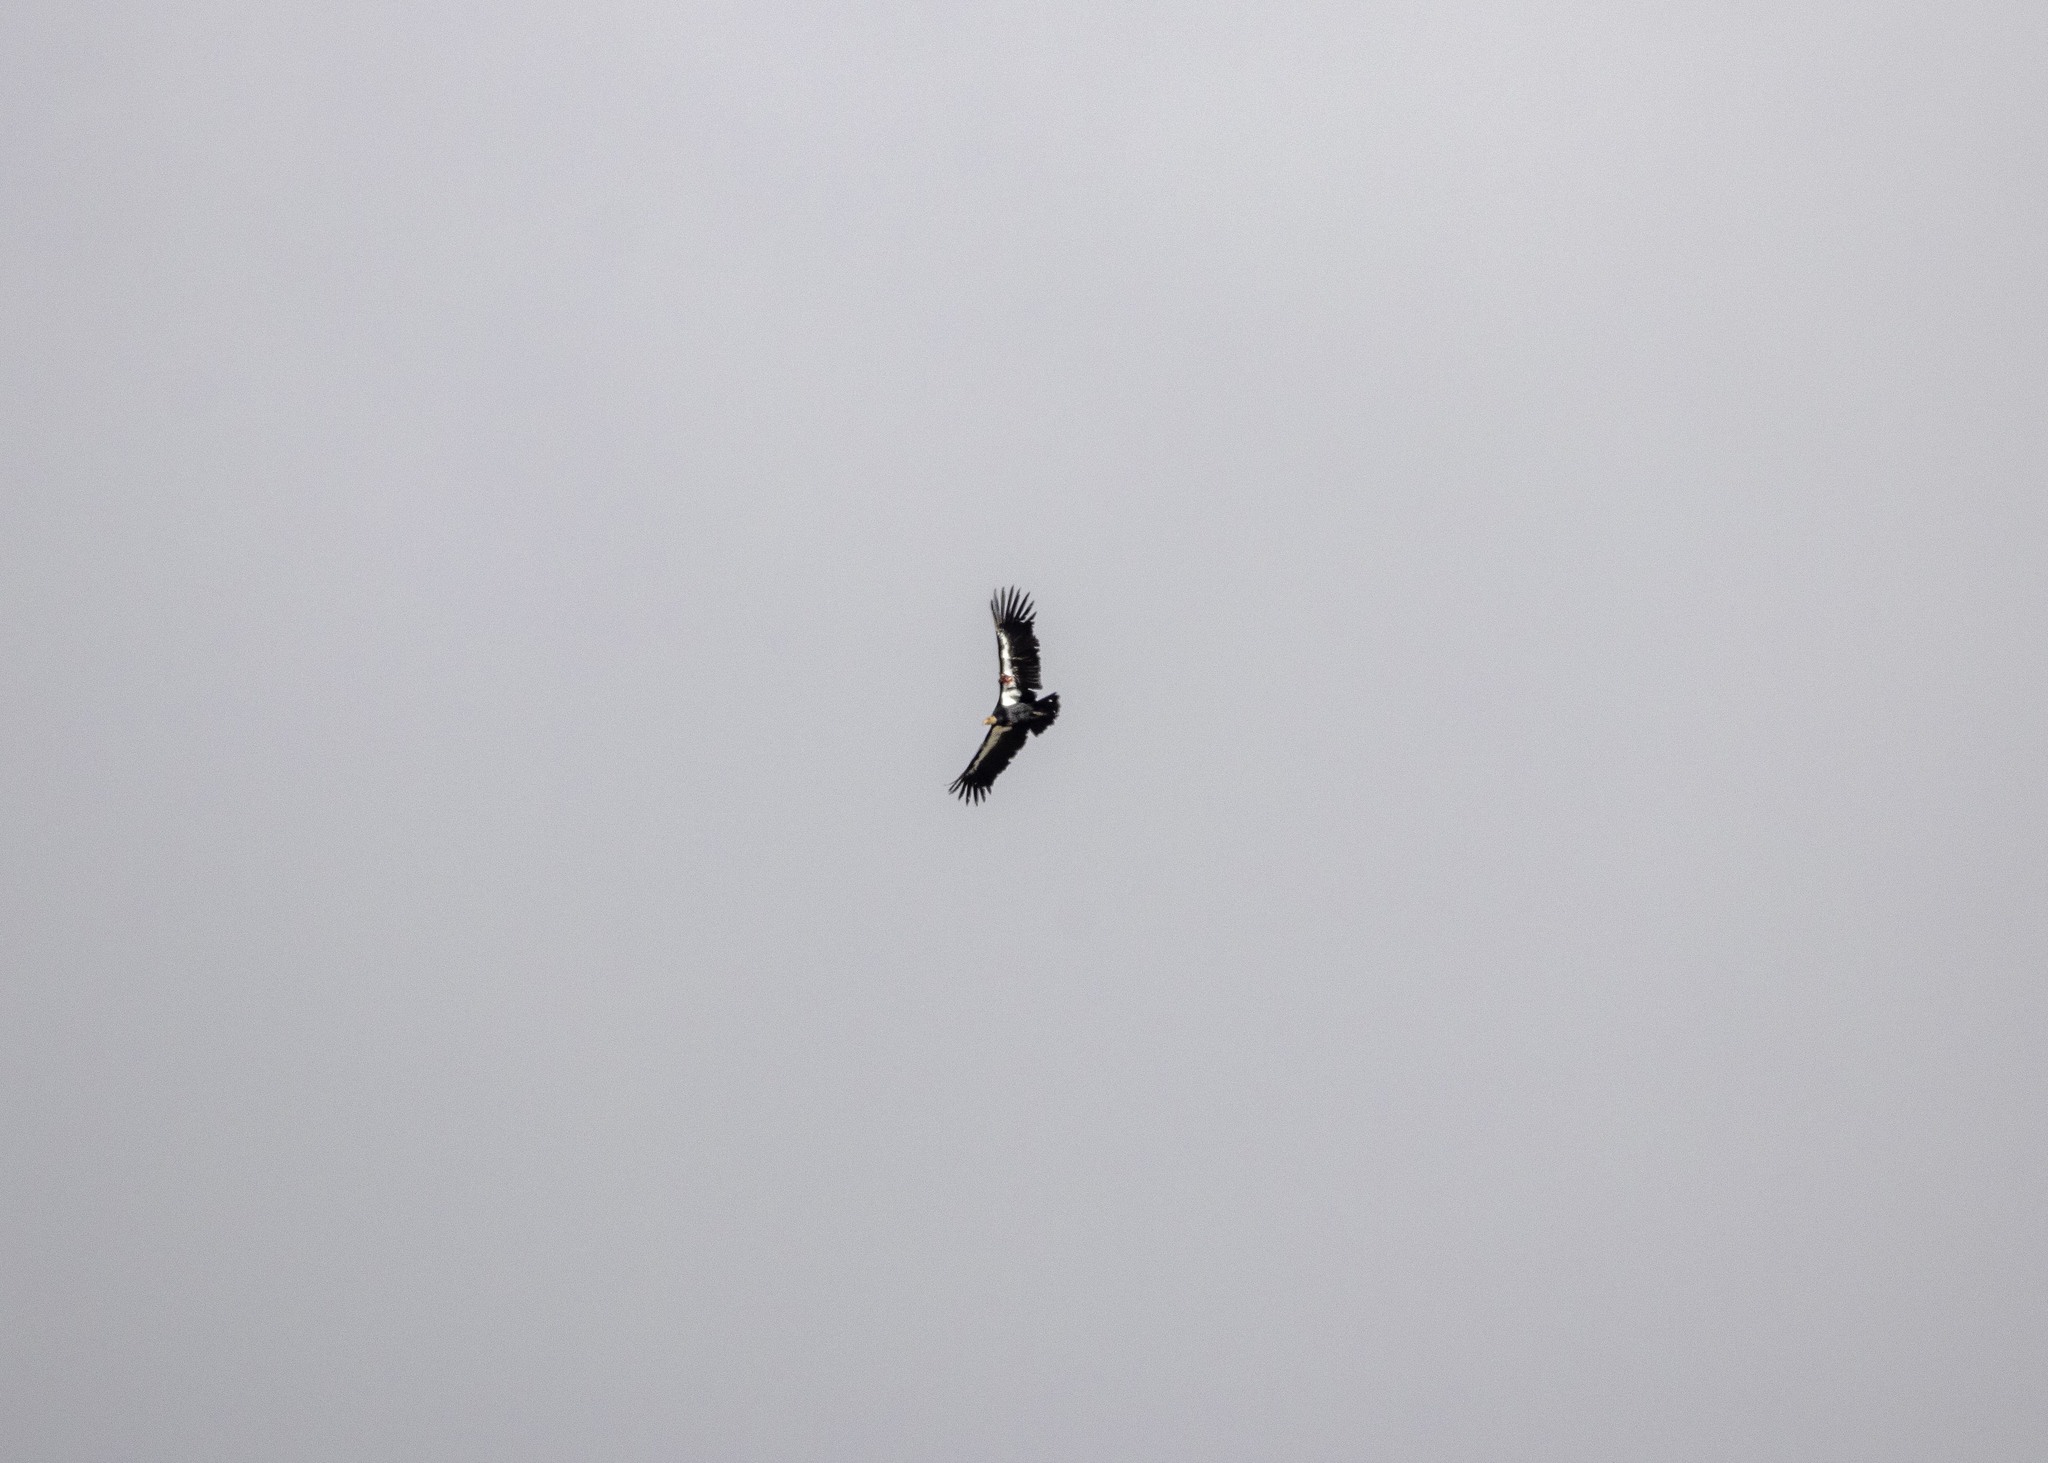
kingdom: Animalia
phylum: Chordata
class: Aves
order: Accipitriformes
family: Cathartidae
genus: Gymnogyps
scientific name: Gymnogyps californianus
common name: California condor
